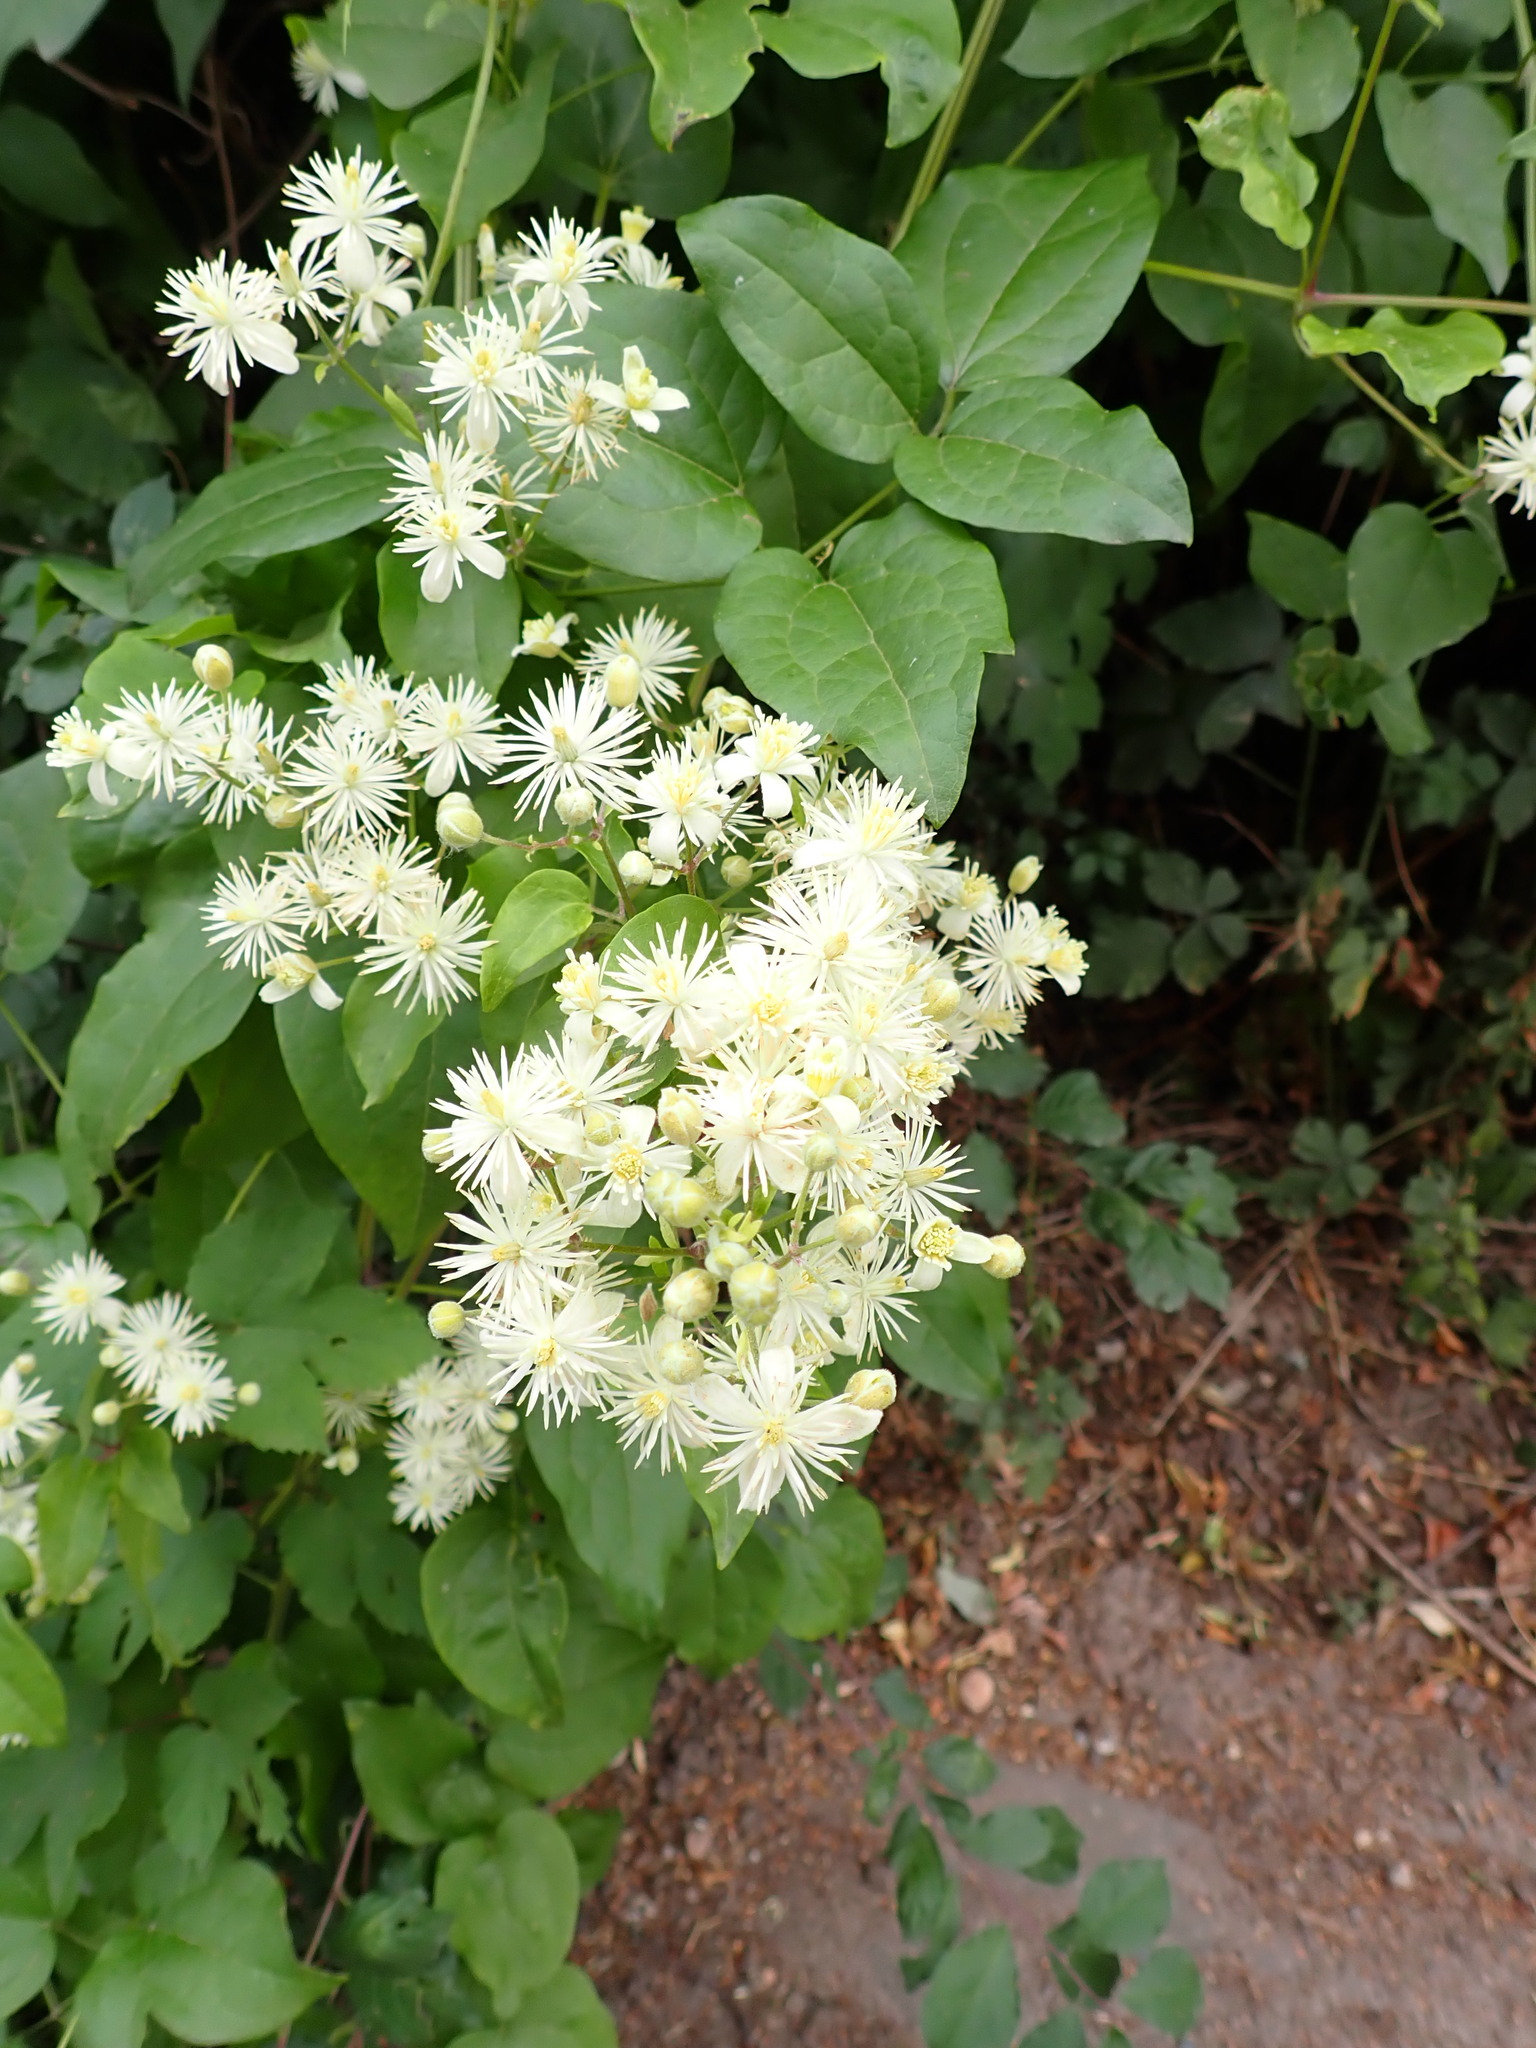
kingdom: Plantae
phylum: Tracheophyta
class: Magnoliopsida
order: Ranunculales
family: Ranunculaceae
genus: Clematis
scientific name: Clematis vitalba
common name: Evergreen clematis
